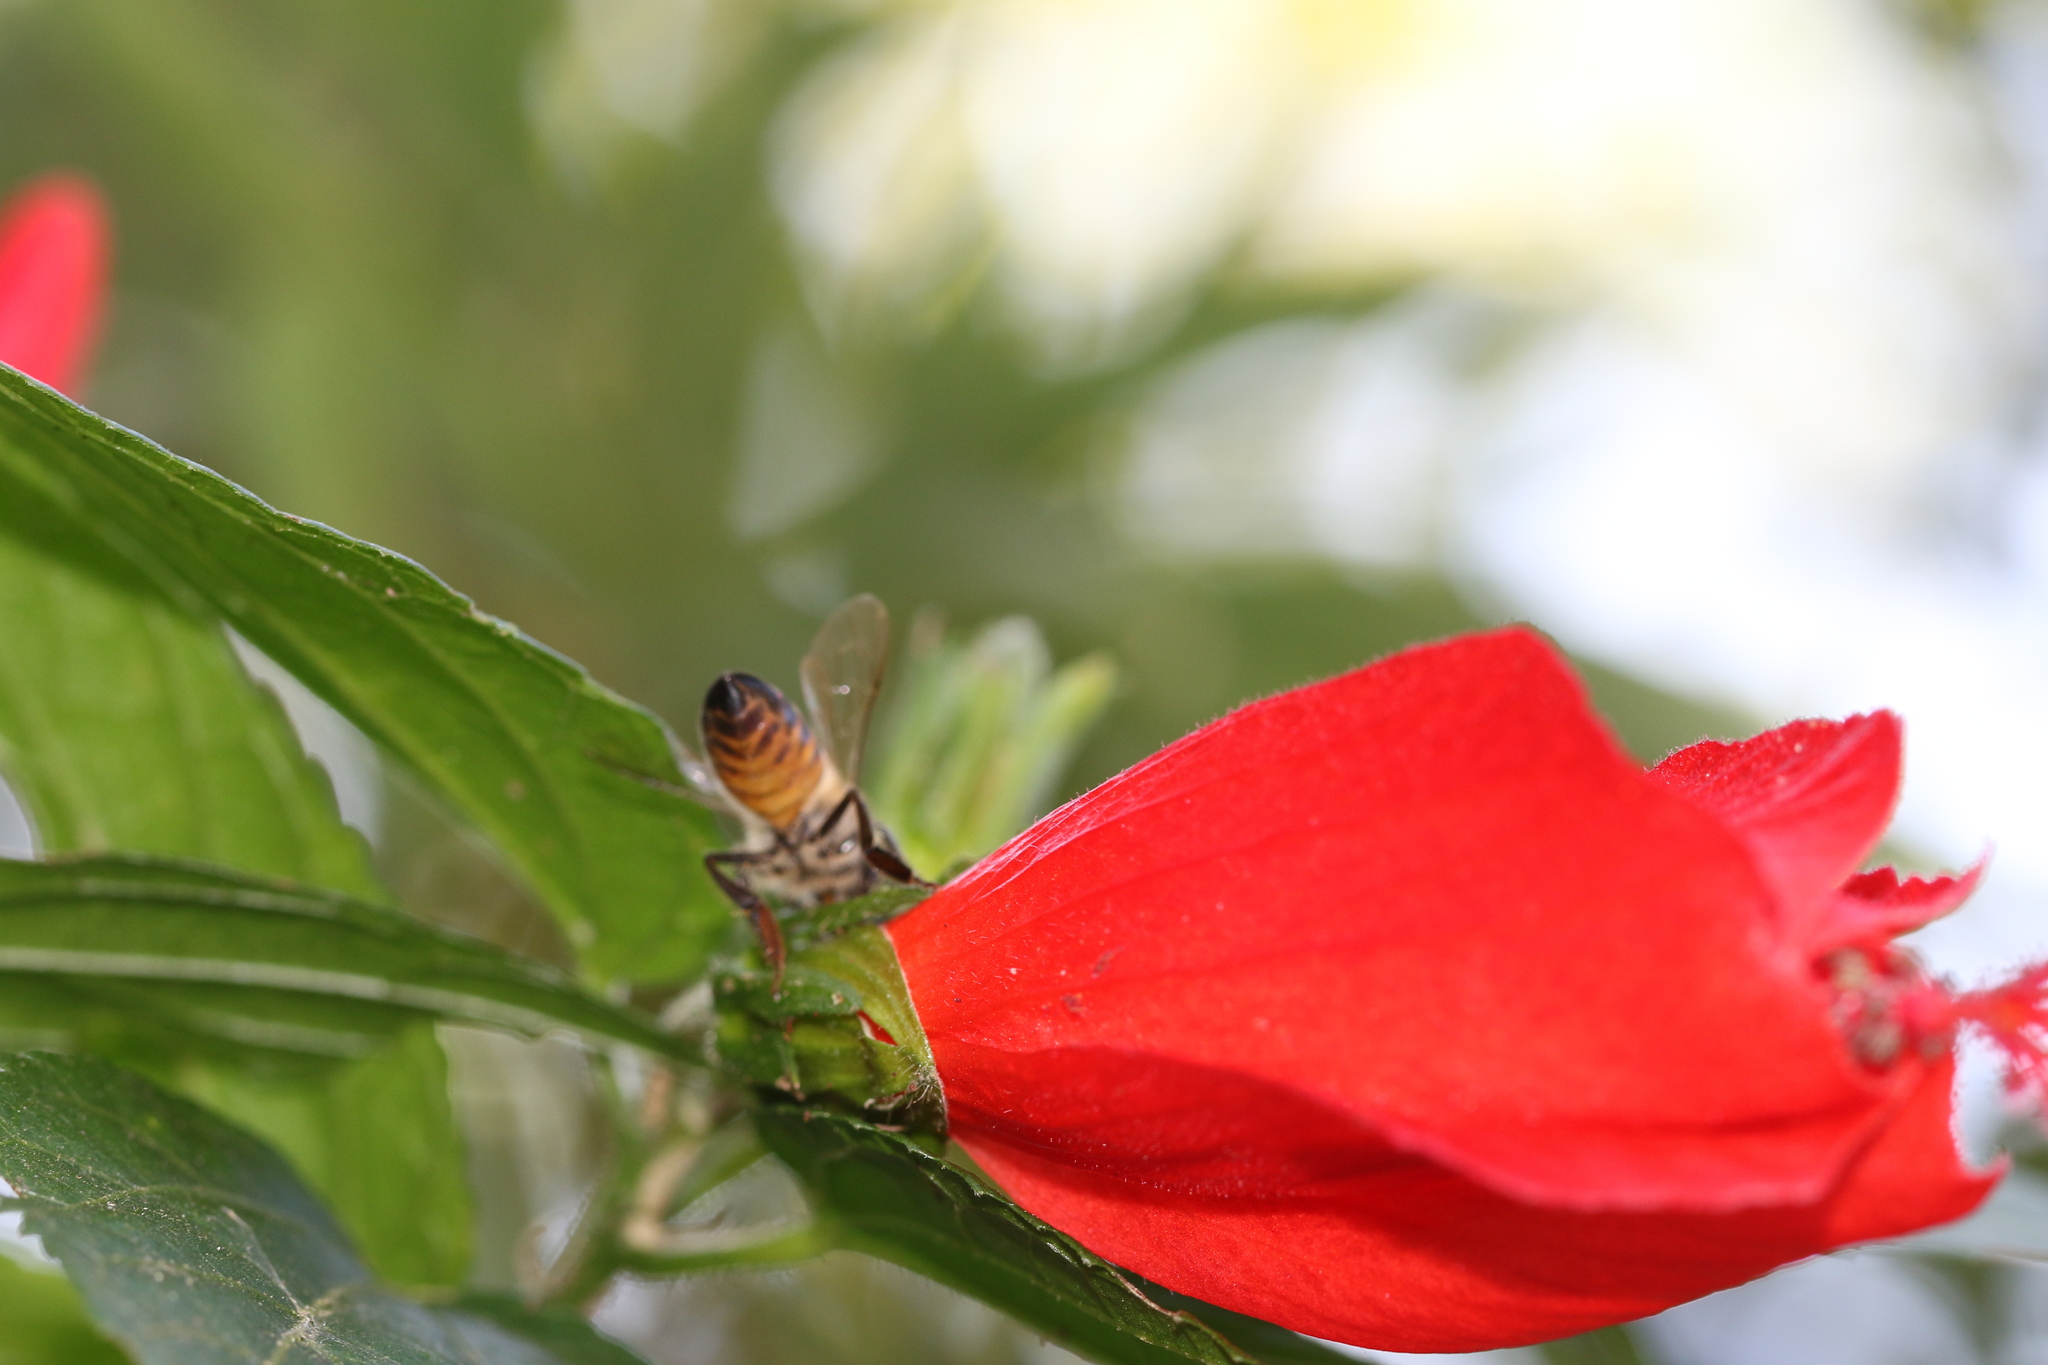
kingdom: Animalia
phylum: Arthropoda
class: Insecta
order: Hymenoptera
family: Apidae
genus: Apis
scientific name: Apis mellifera
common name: Honey bee
